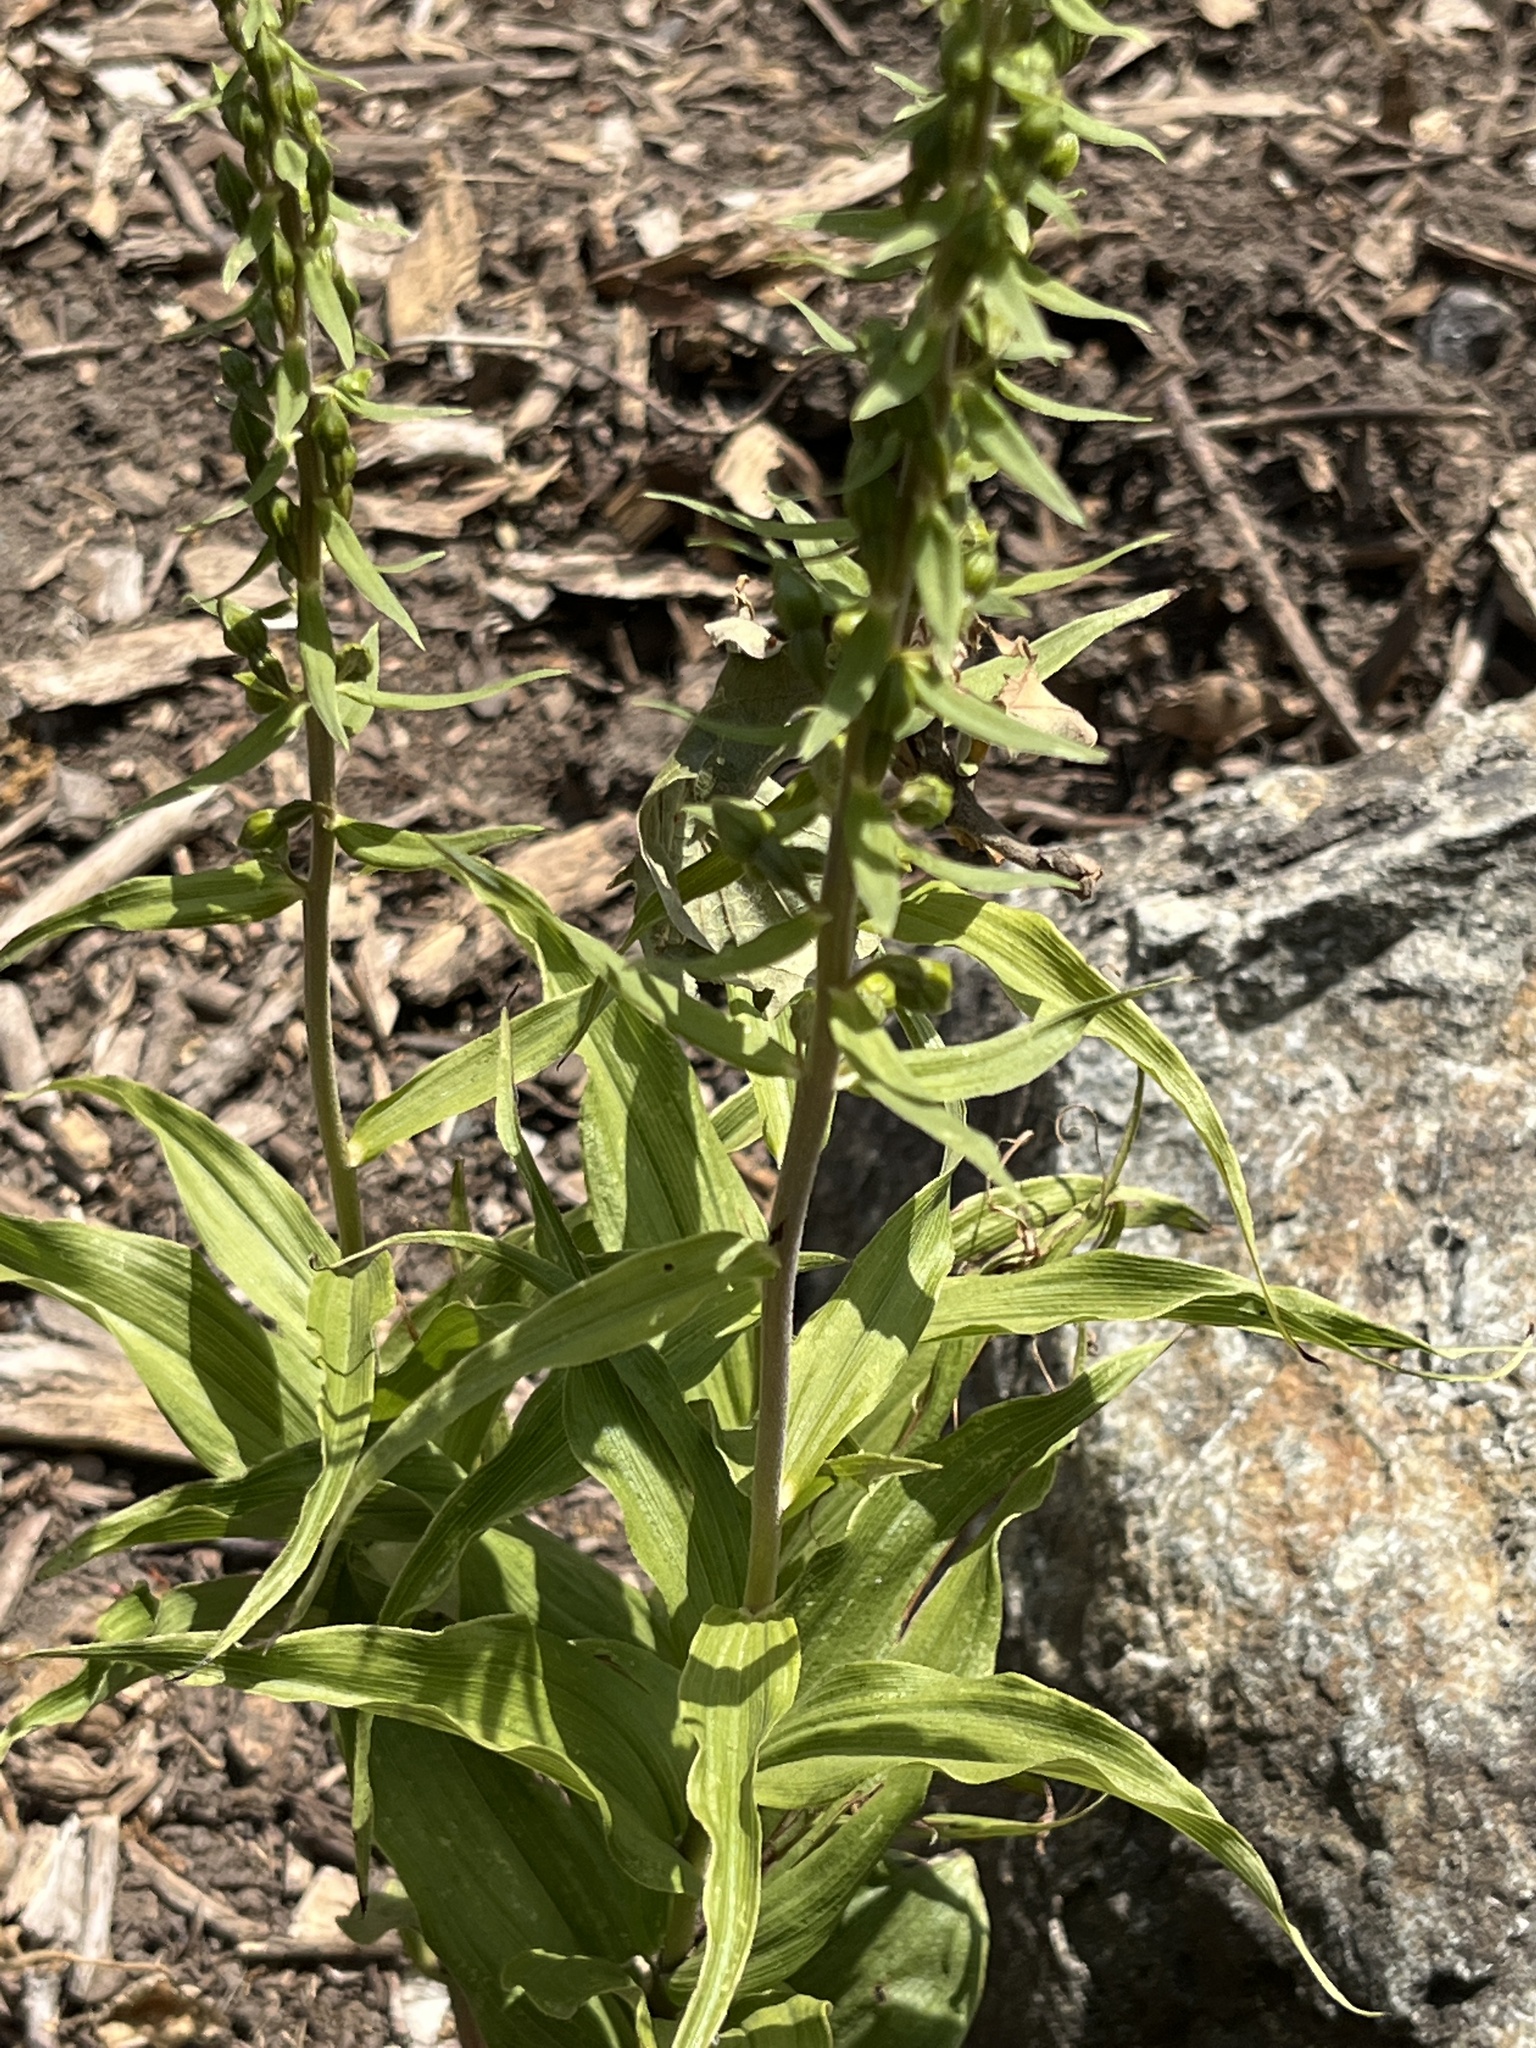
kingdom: Plantae
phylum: Tracheophyta
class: Liliopsida
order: Asparagales
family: Orchidaceae
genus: Epipactis
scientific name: Epipactis helleborine
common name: Broad-leaved helleborine
